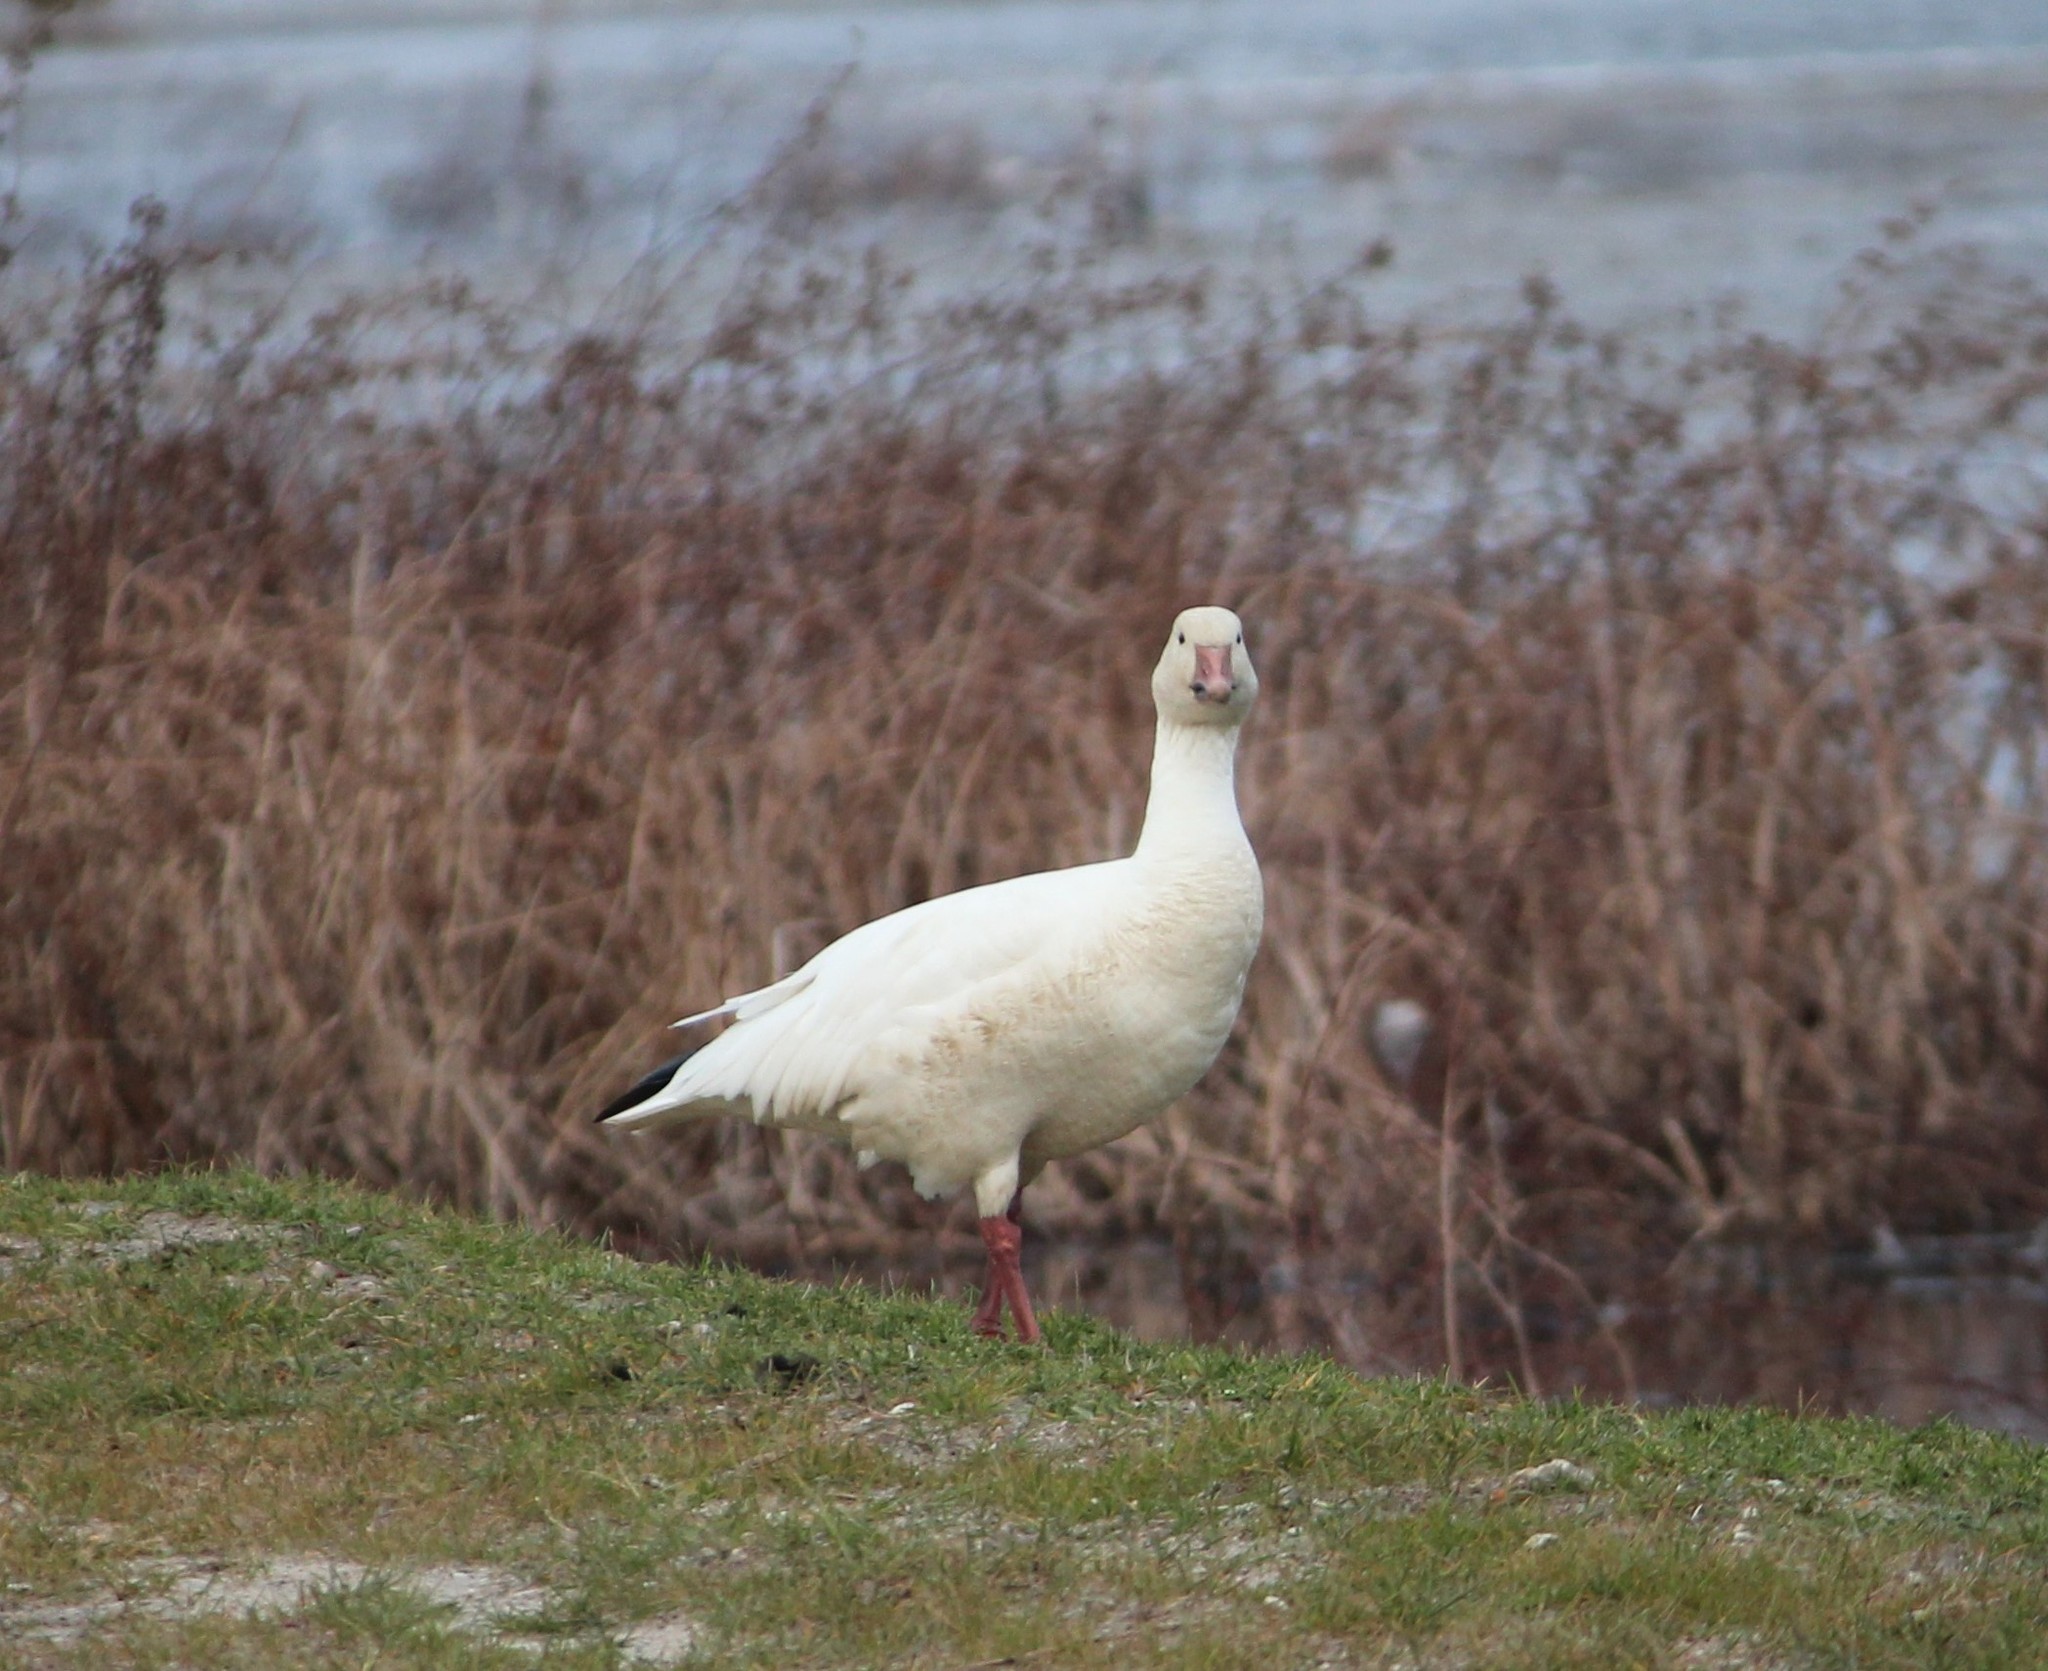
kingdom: Animalia
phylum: Chordata
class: Aves
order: Anseriformes
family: Anatidae
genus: Anser
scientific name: Anser caerulescens
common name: Snow goose
